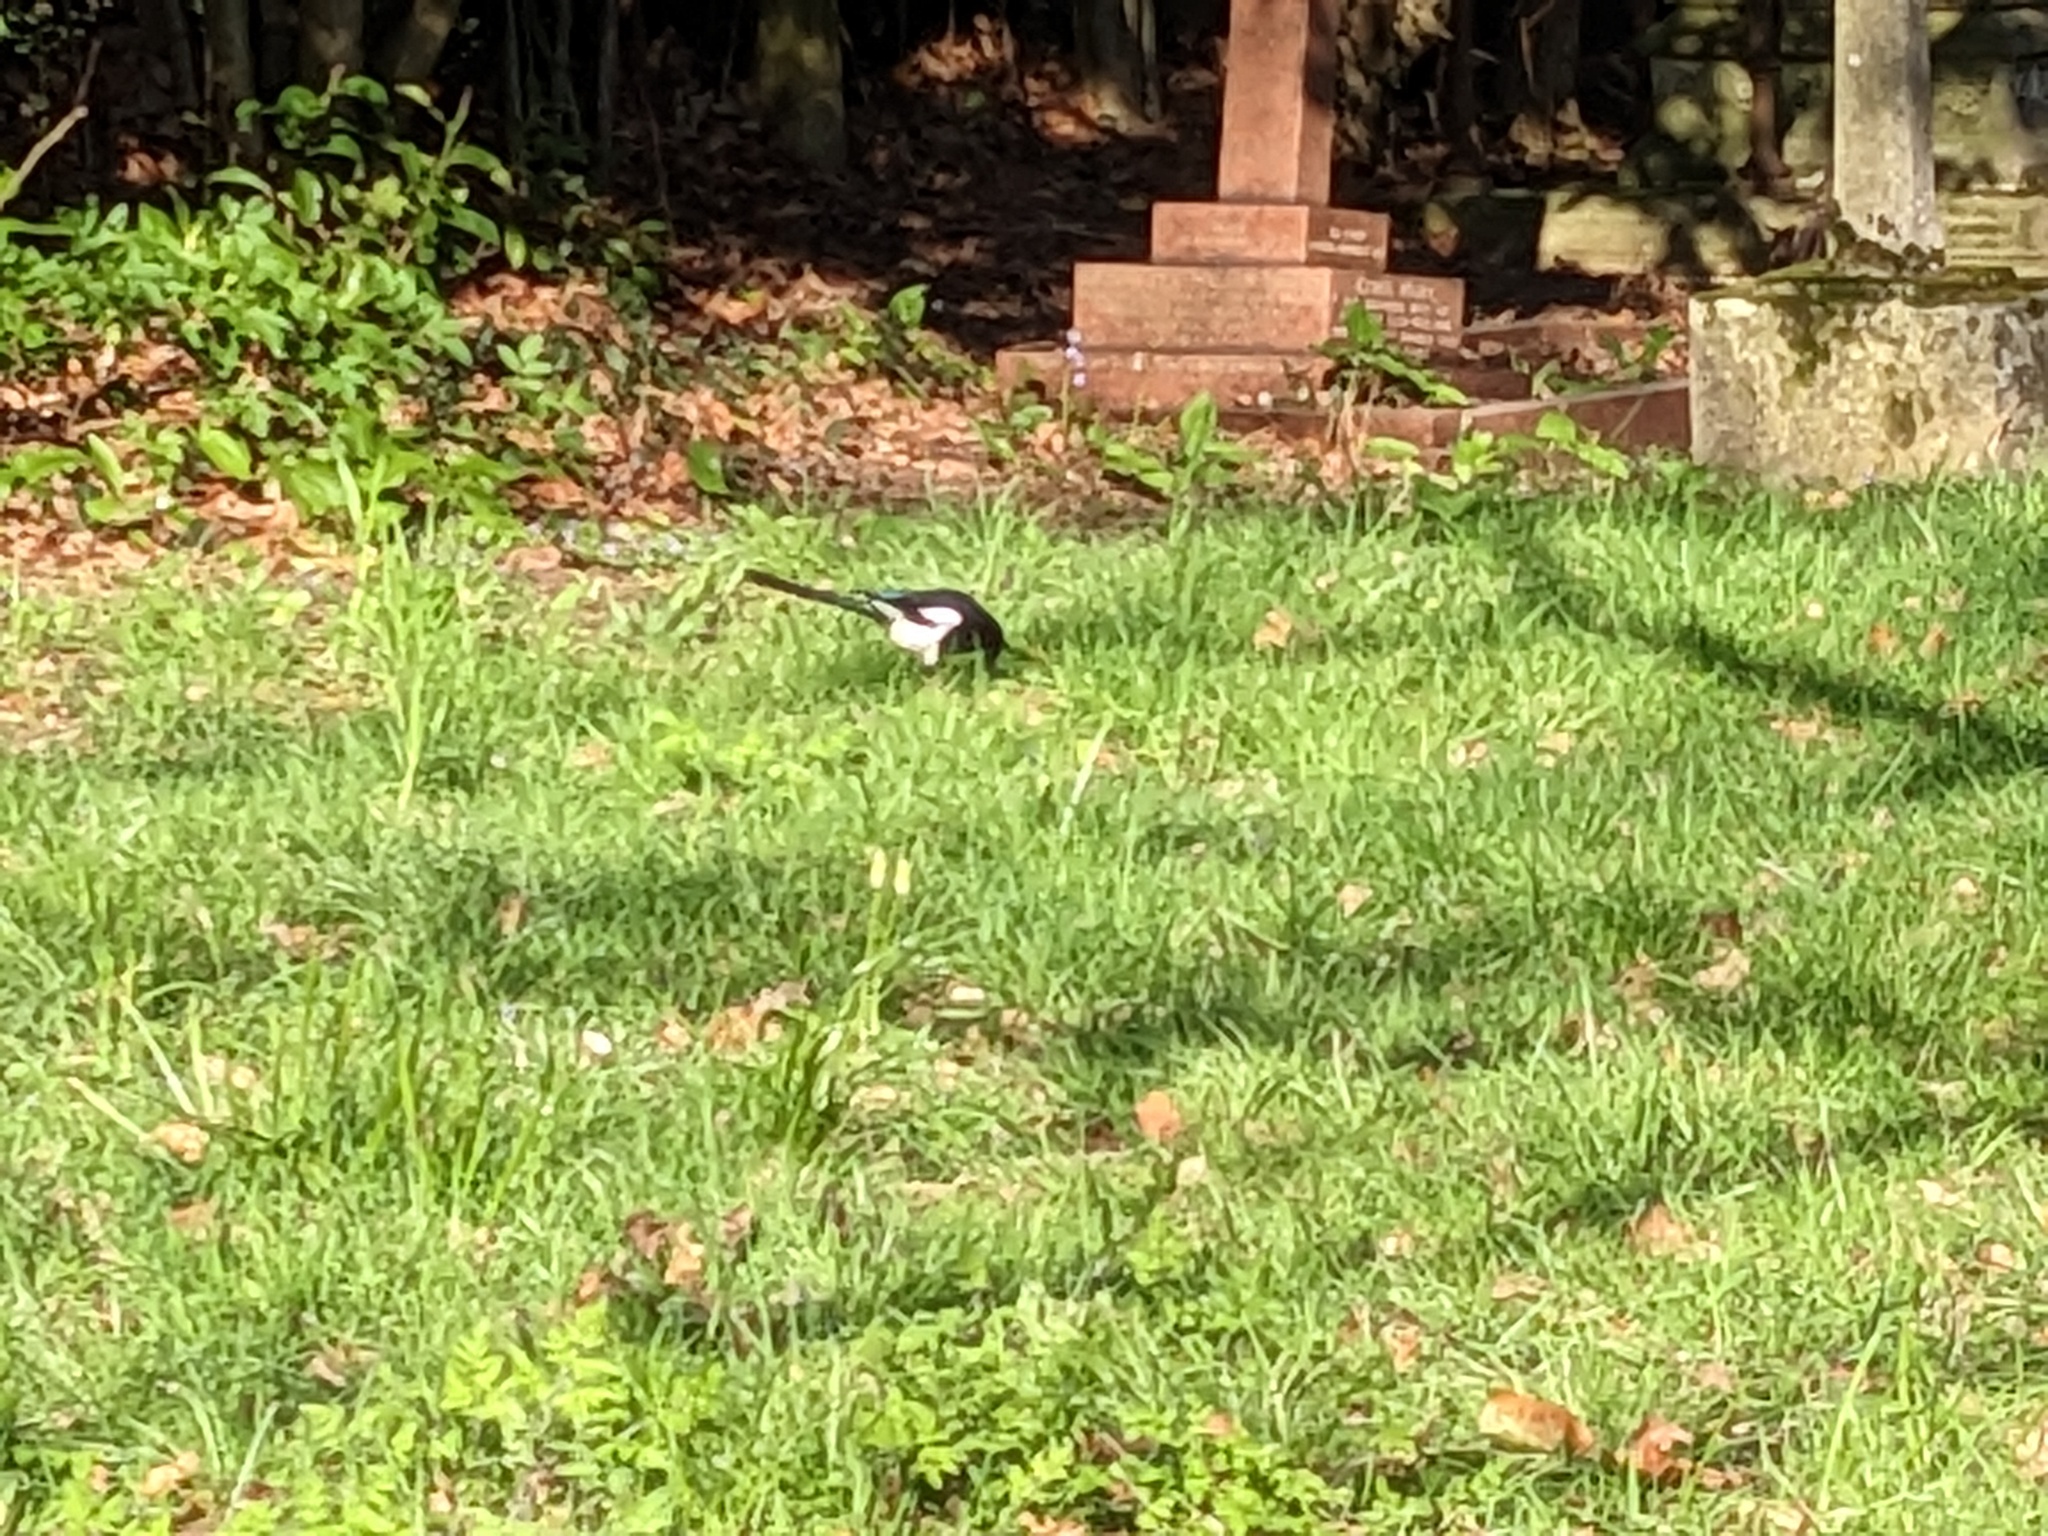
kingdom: Animalia
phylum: Chordata
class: Aves
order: Passeriformes
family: Corvidae
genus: Pica
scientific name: Pica pica
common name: Eurasian magpie
